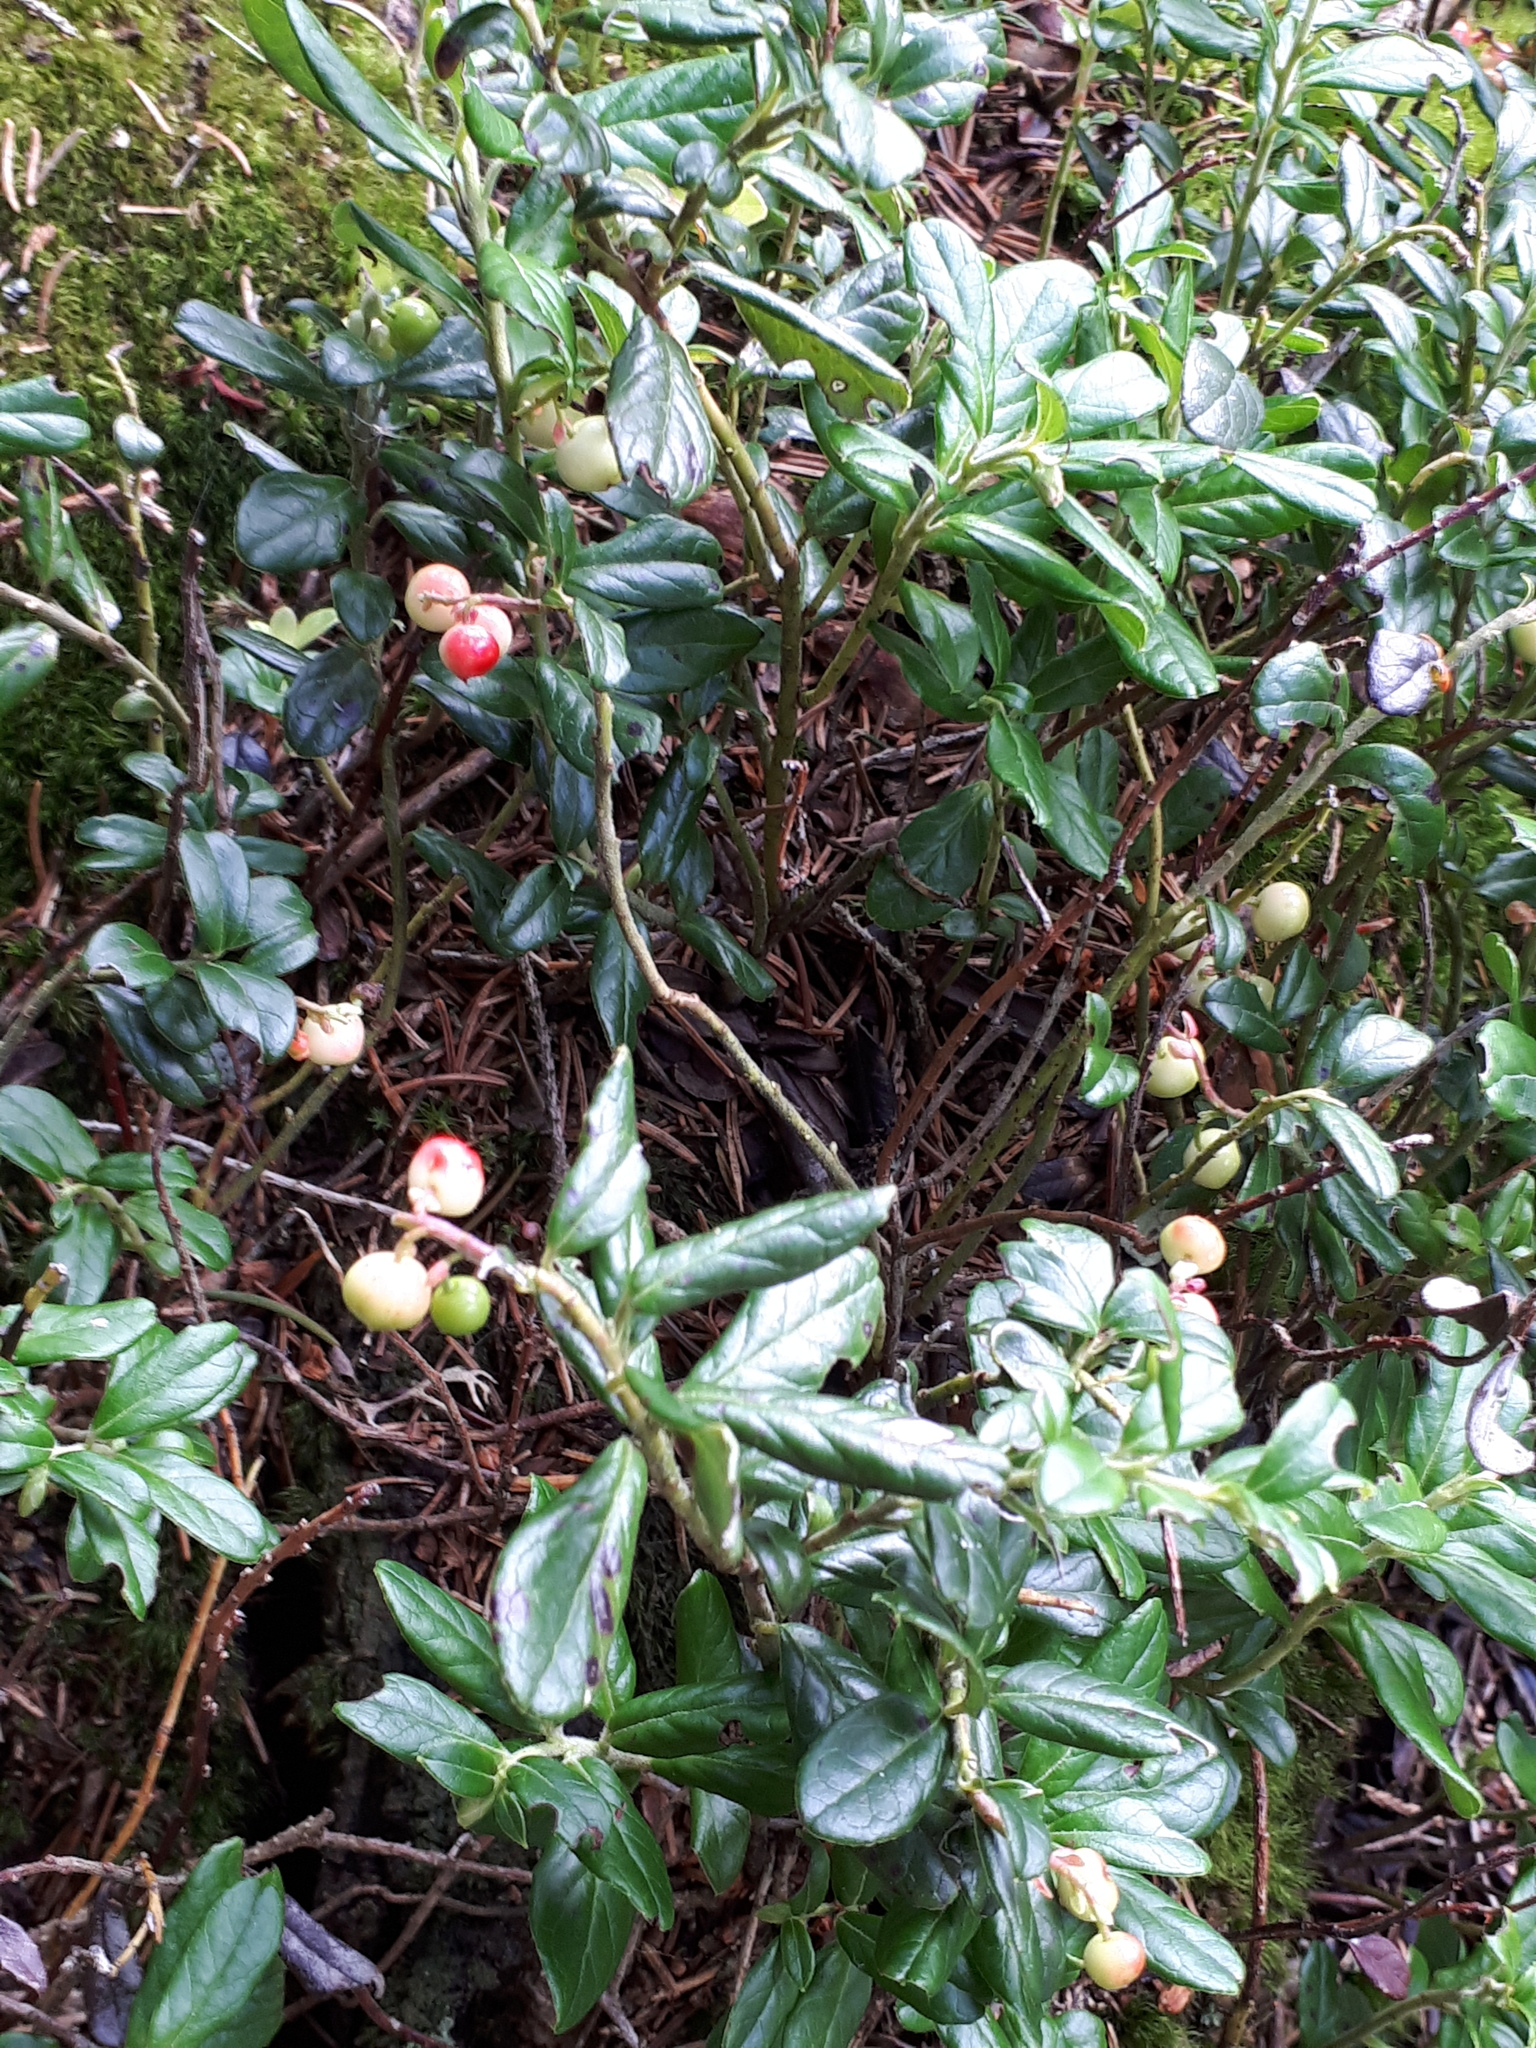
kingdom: Plantae
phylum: Tracheophyta
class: Magnoliopsida
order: Ericales
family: Ericaceae
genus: Vaccinium
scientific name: Vaccinium vitis-idaea
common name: Cowberry
